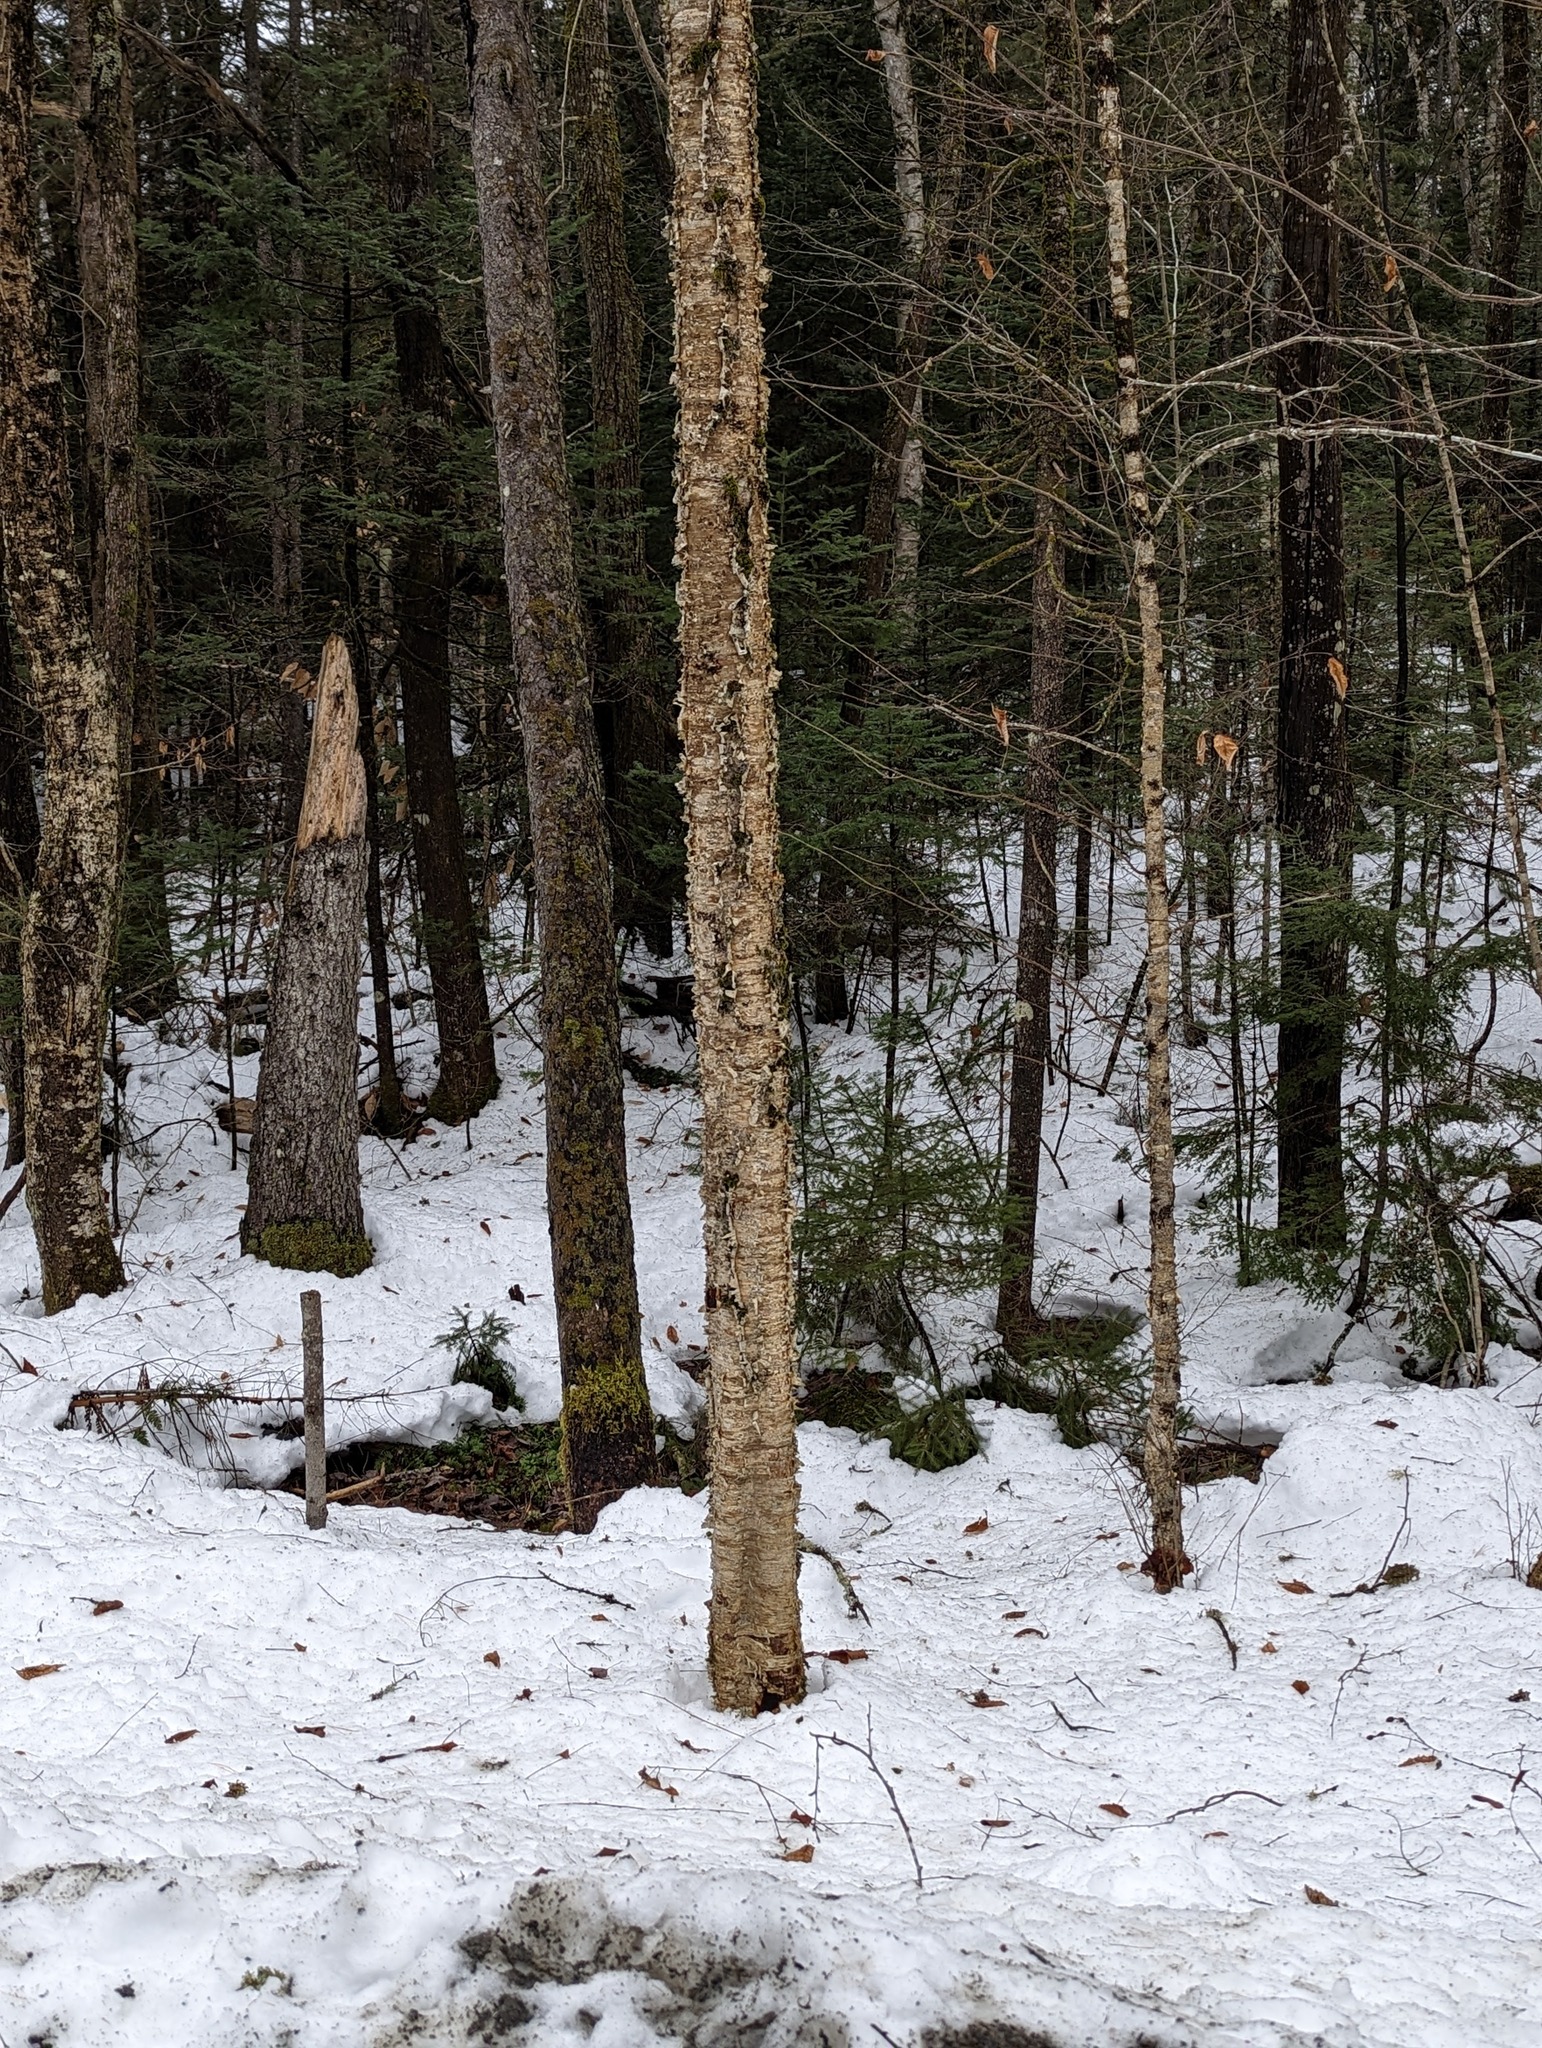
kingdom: Plantae
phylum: Tracheophyta
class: Magnoliopsida
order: Fagales
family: Betulaceae
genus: Betula
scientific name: Betula alleghaniensis
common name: Yellow birch
